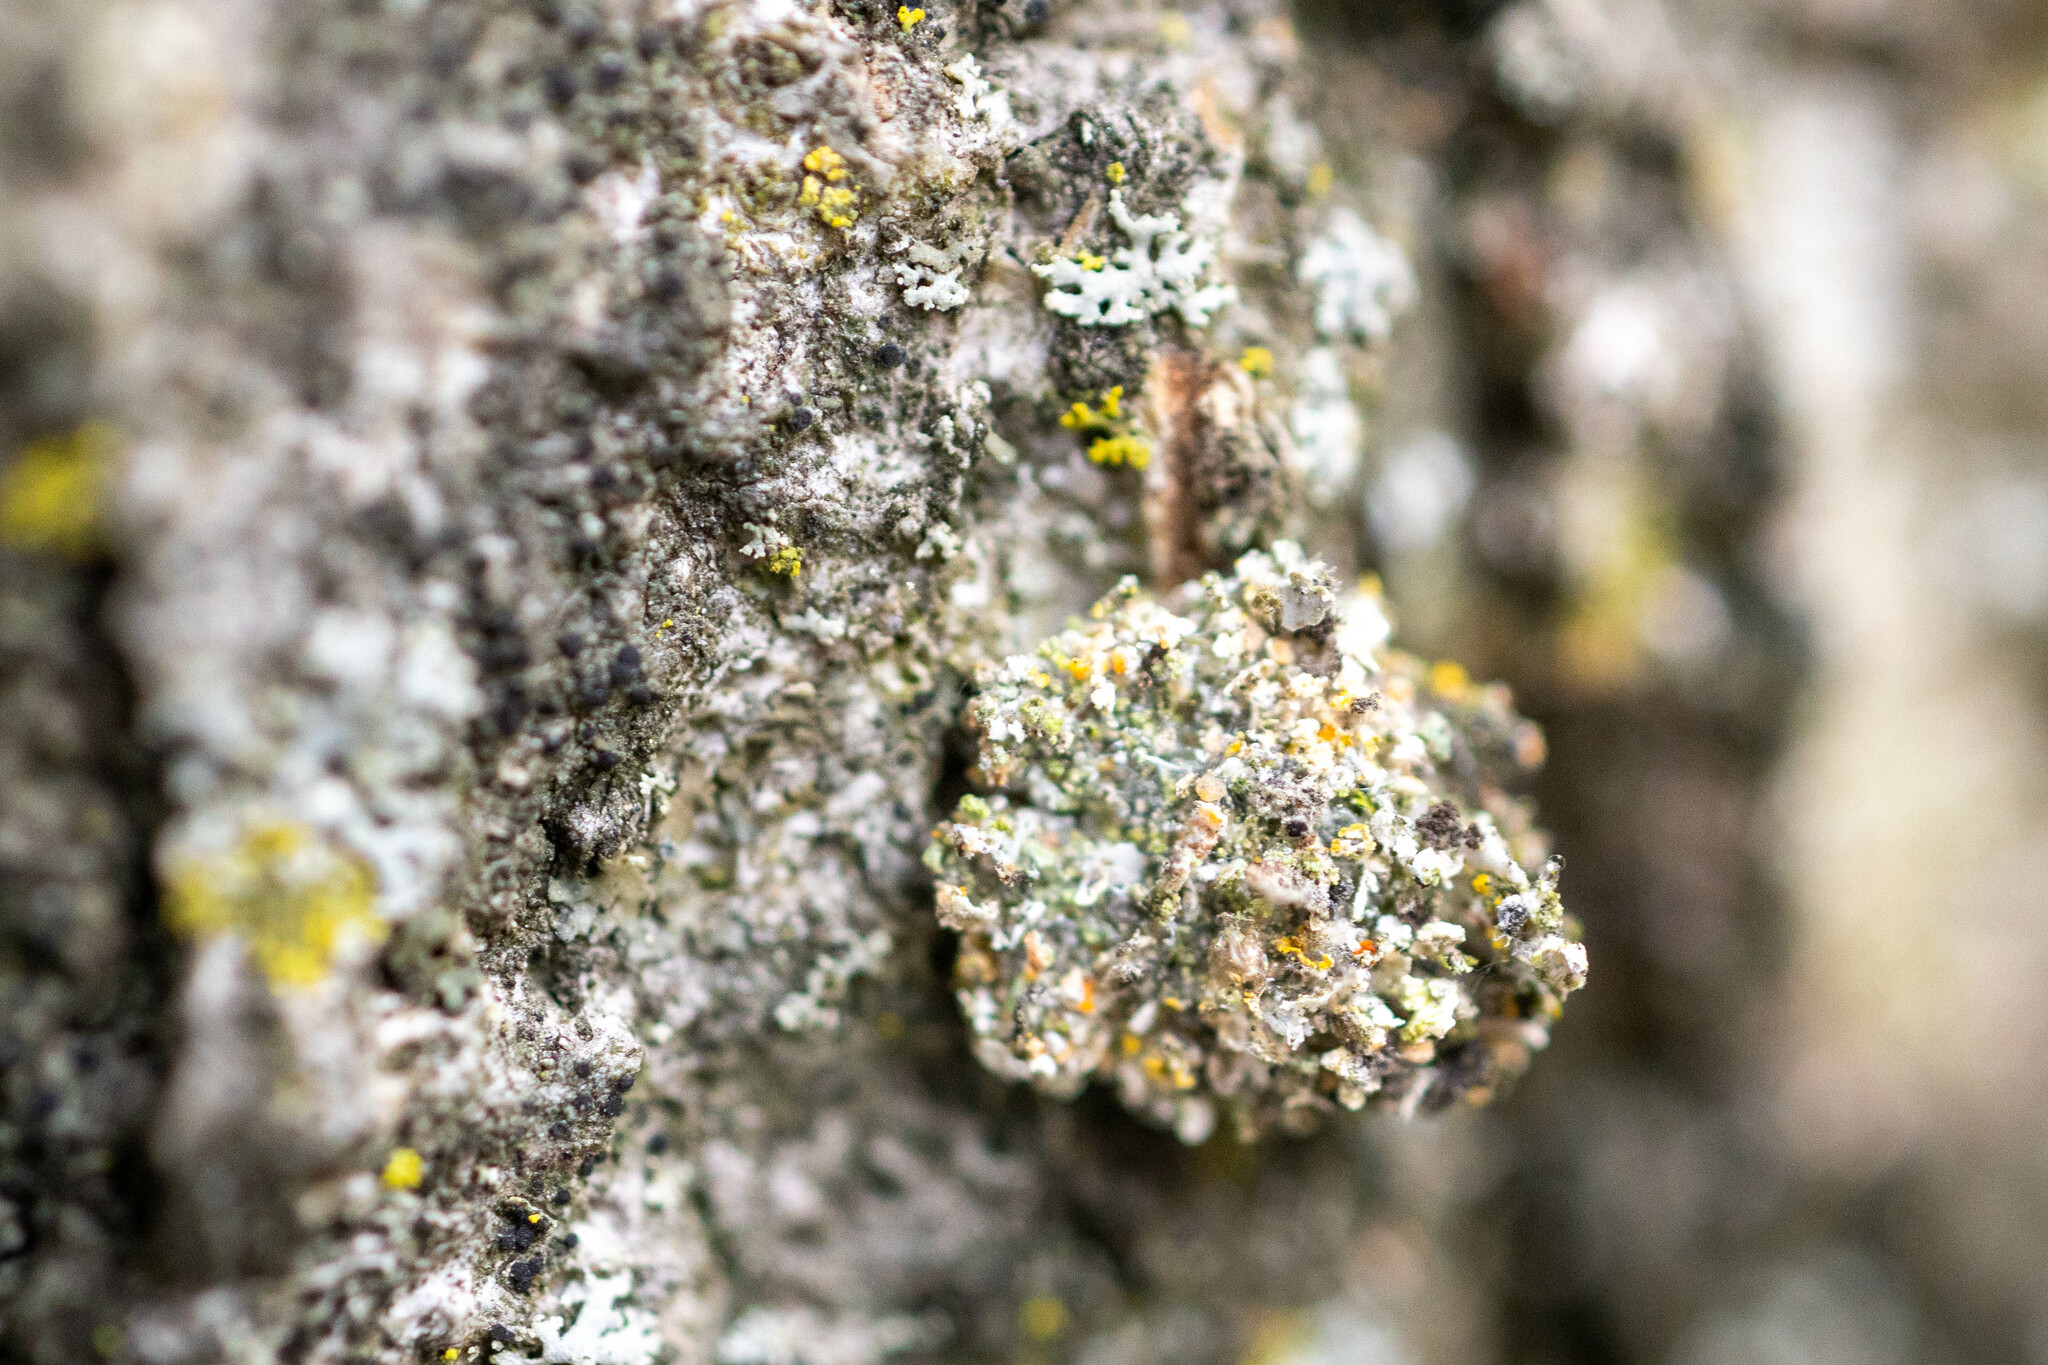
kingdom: Animalia
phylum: Arthropoda
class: Insecta
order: Neuroptera
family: Chrysopidae
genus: Leucochrysa
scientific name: Leucochrysa pavida
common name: Lichen-carrying green lacewing
